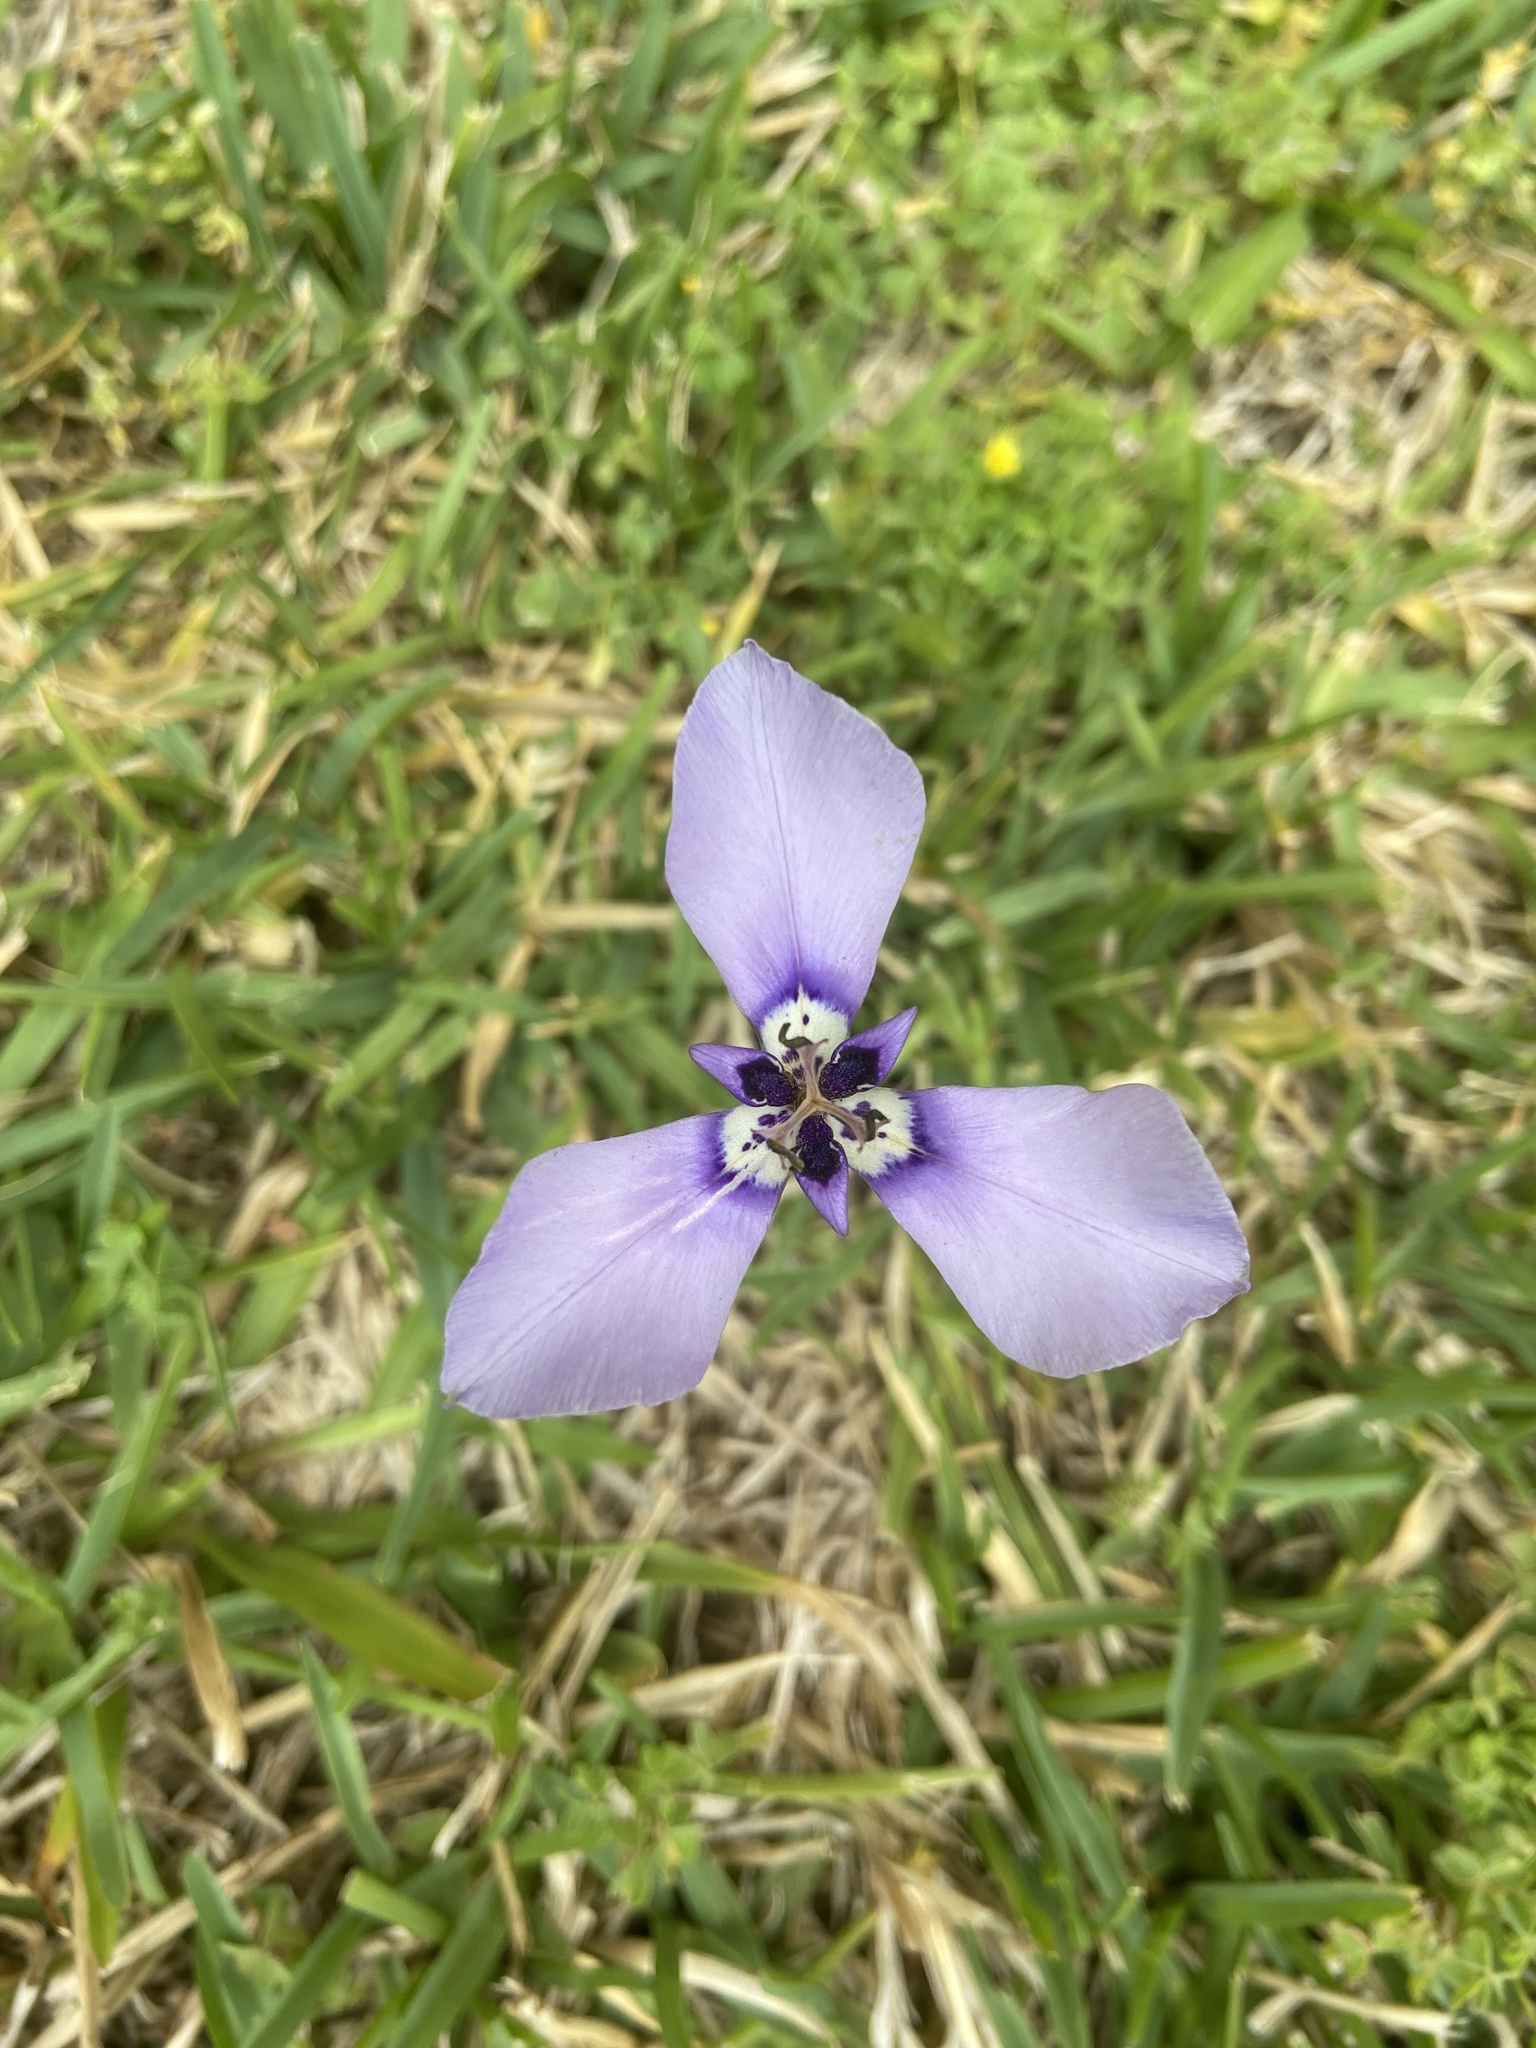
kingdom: Plantae
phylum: Tracheophyta
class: Liliopsida
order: Asparagales
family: Iridaceae
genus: Herbertia
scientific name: Herbertia lahue
